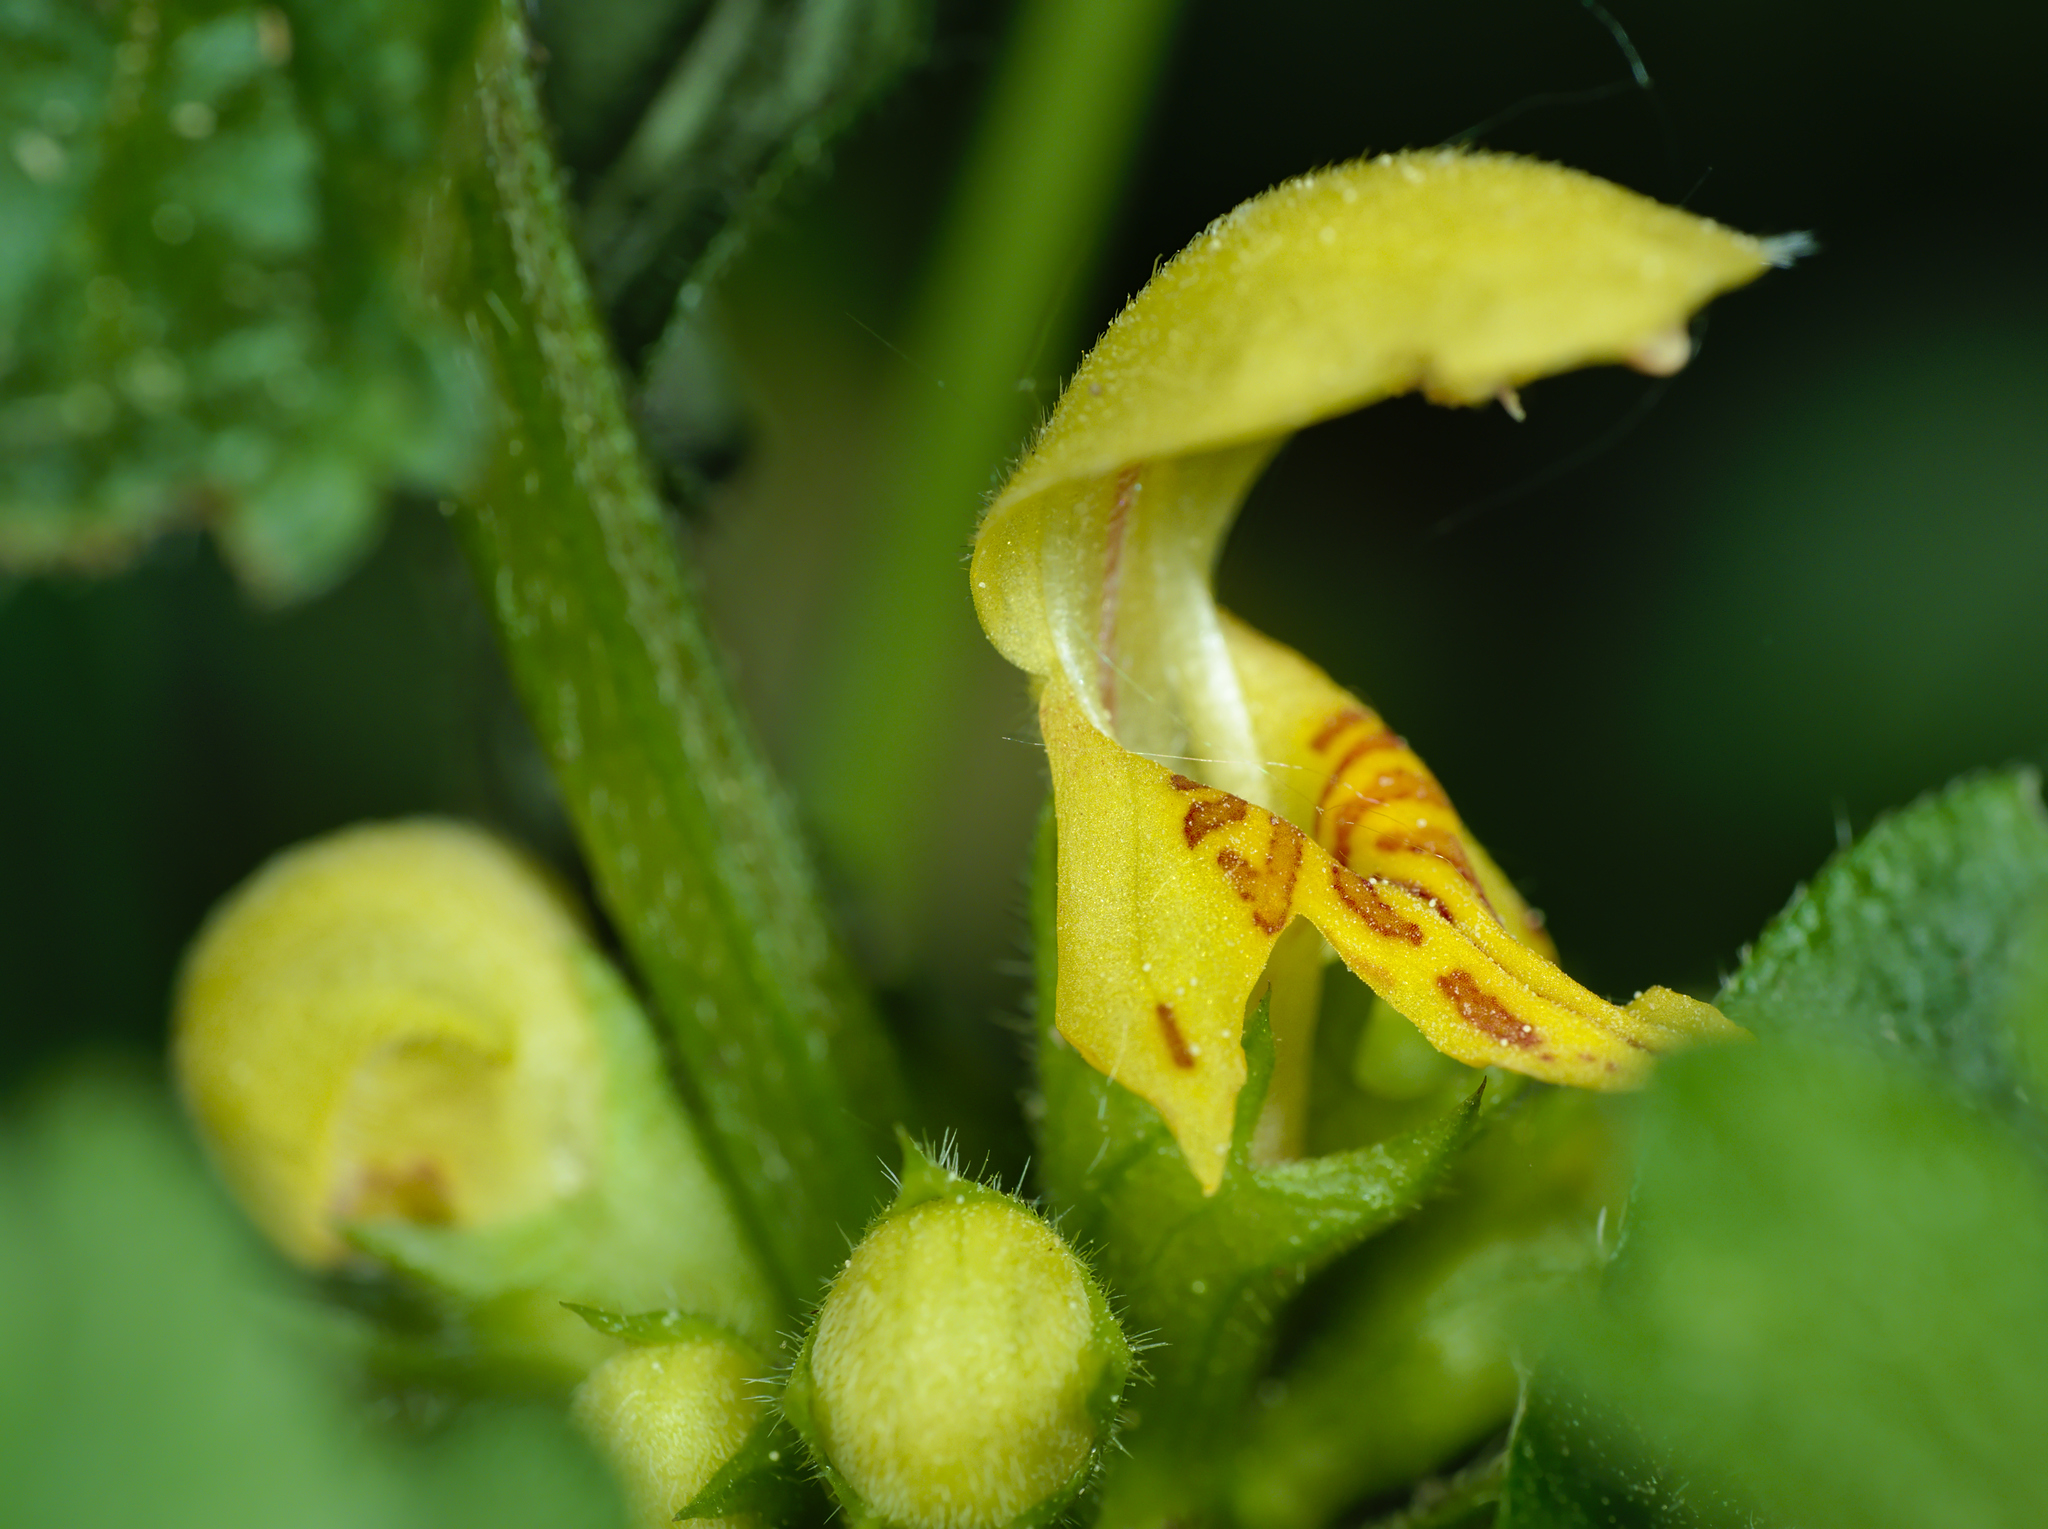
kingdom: Plantae
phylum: Tracheophyta
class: Magnoliopsida
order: Lamiales
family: Lamiaceae
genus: Lamium
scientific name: Lamium galeobdolon
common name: Yellow archangel
